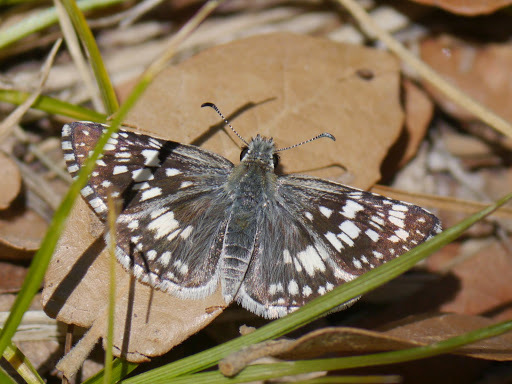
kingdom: Animalia
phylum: Arthropoda
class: Insecta
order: Lepidoptera
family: Hesperiidae
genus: Burnsius
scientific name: Burnsius communis
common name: Common checkered-skipper
